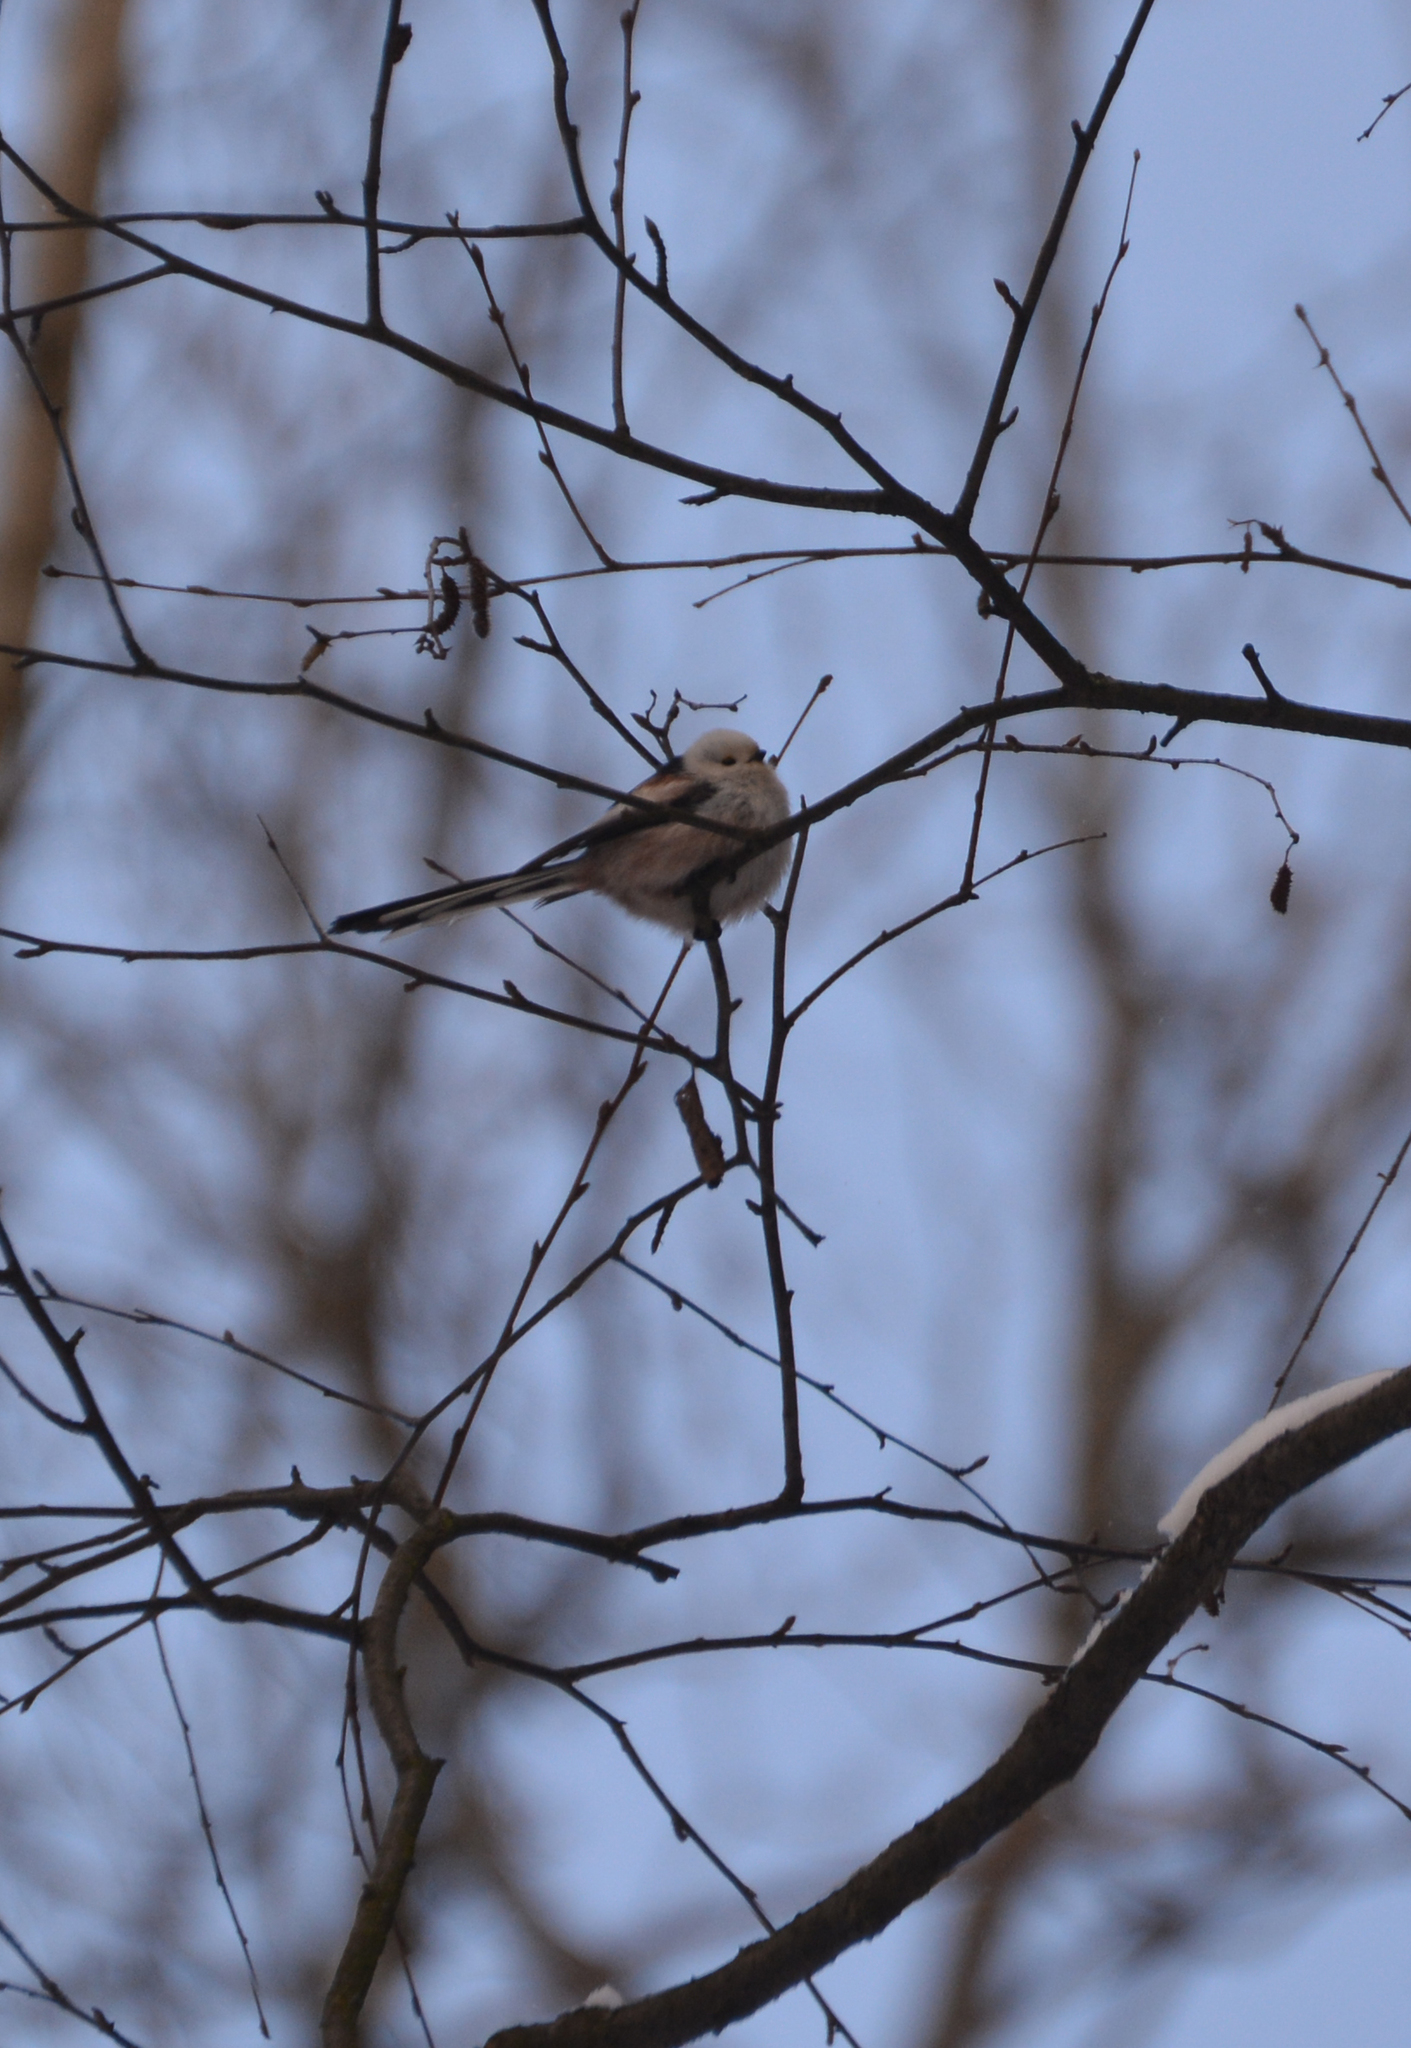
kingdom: Animalia
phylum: Chordata
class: Aves
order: Passeriformes
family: Aegithalidae
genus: Aegithalos
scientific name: Aegithalos caudatus
